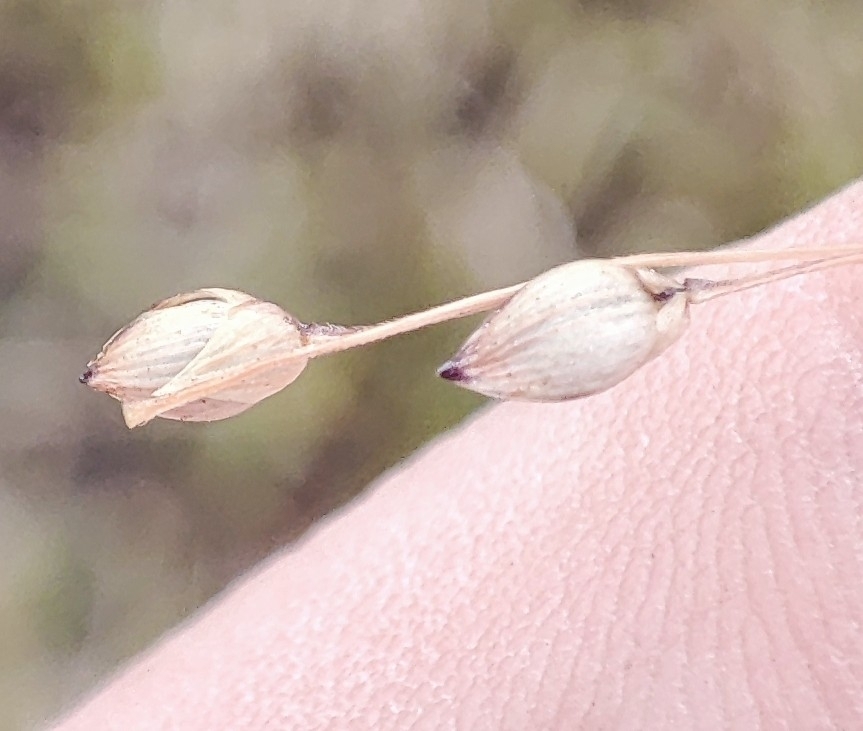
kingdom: Plantae
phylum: Tracheophyta
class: Liliopsida
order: Poales
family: Poaceae
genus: Panicum
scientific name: Panicum miliaceum
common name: Common millet
